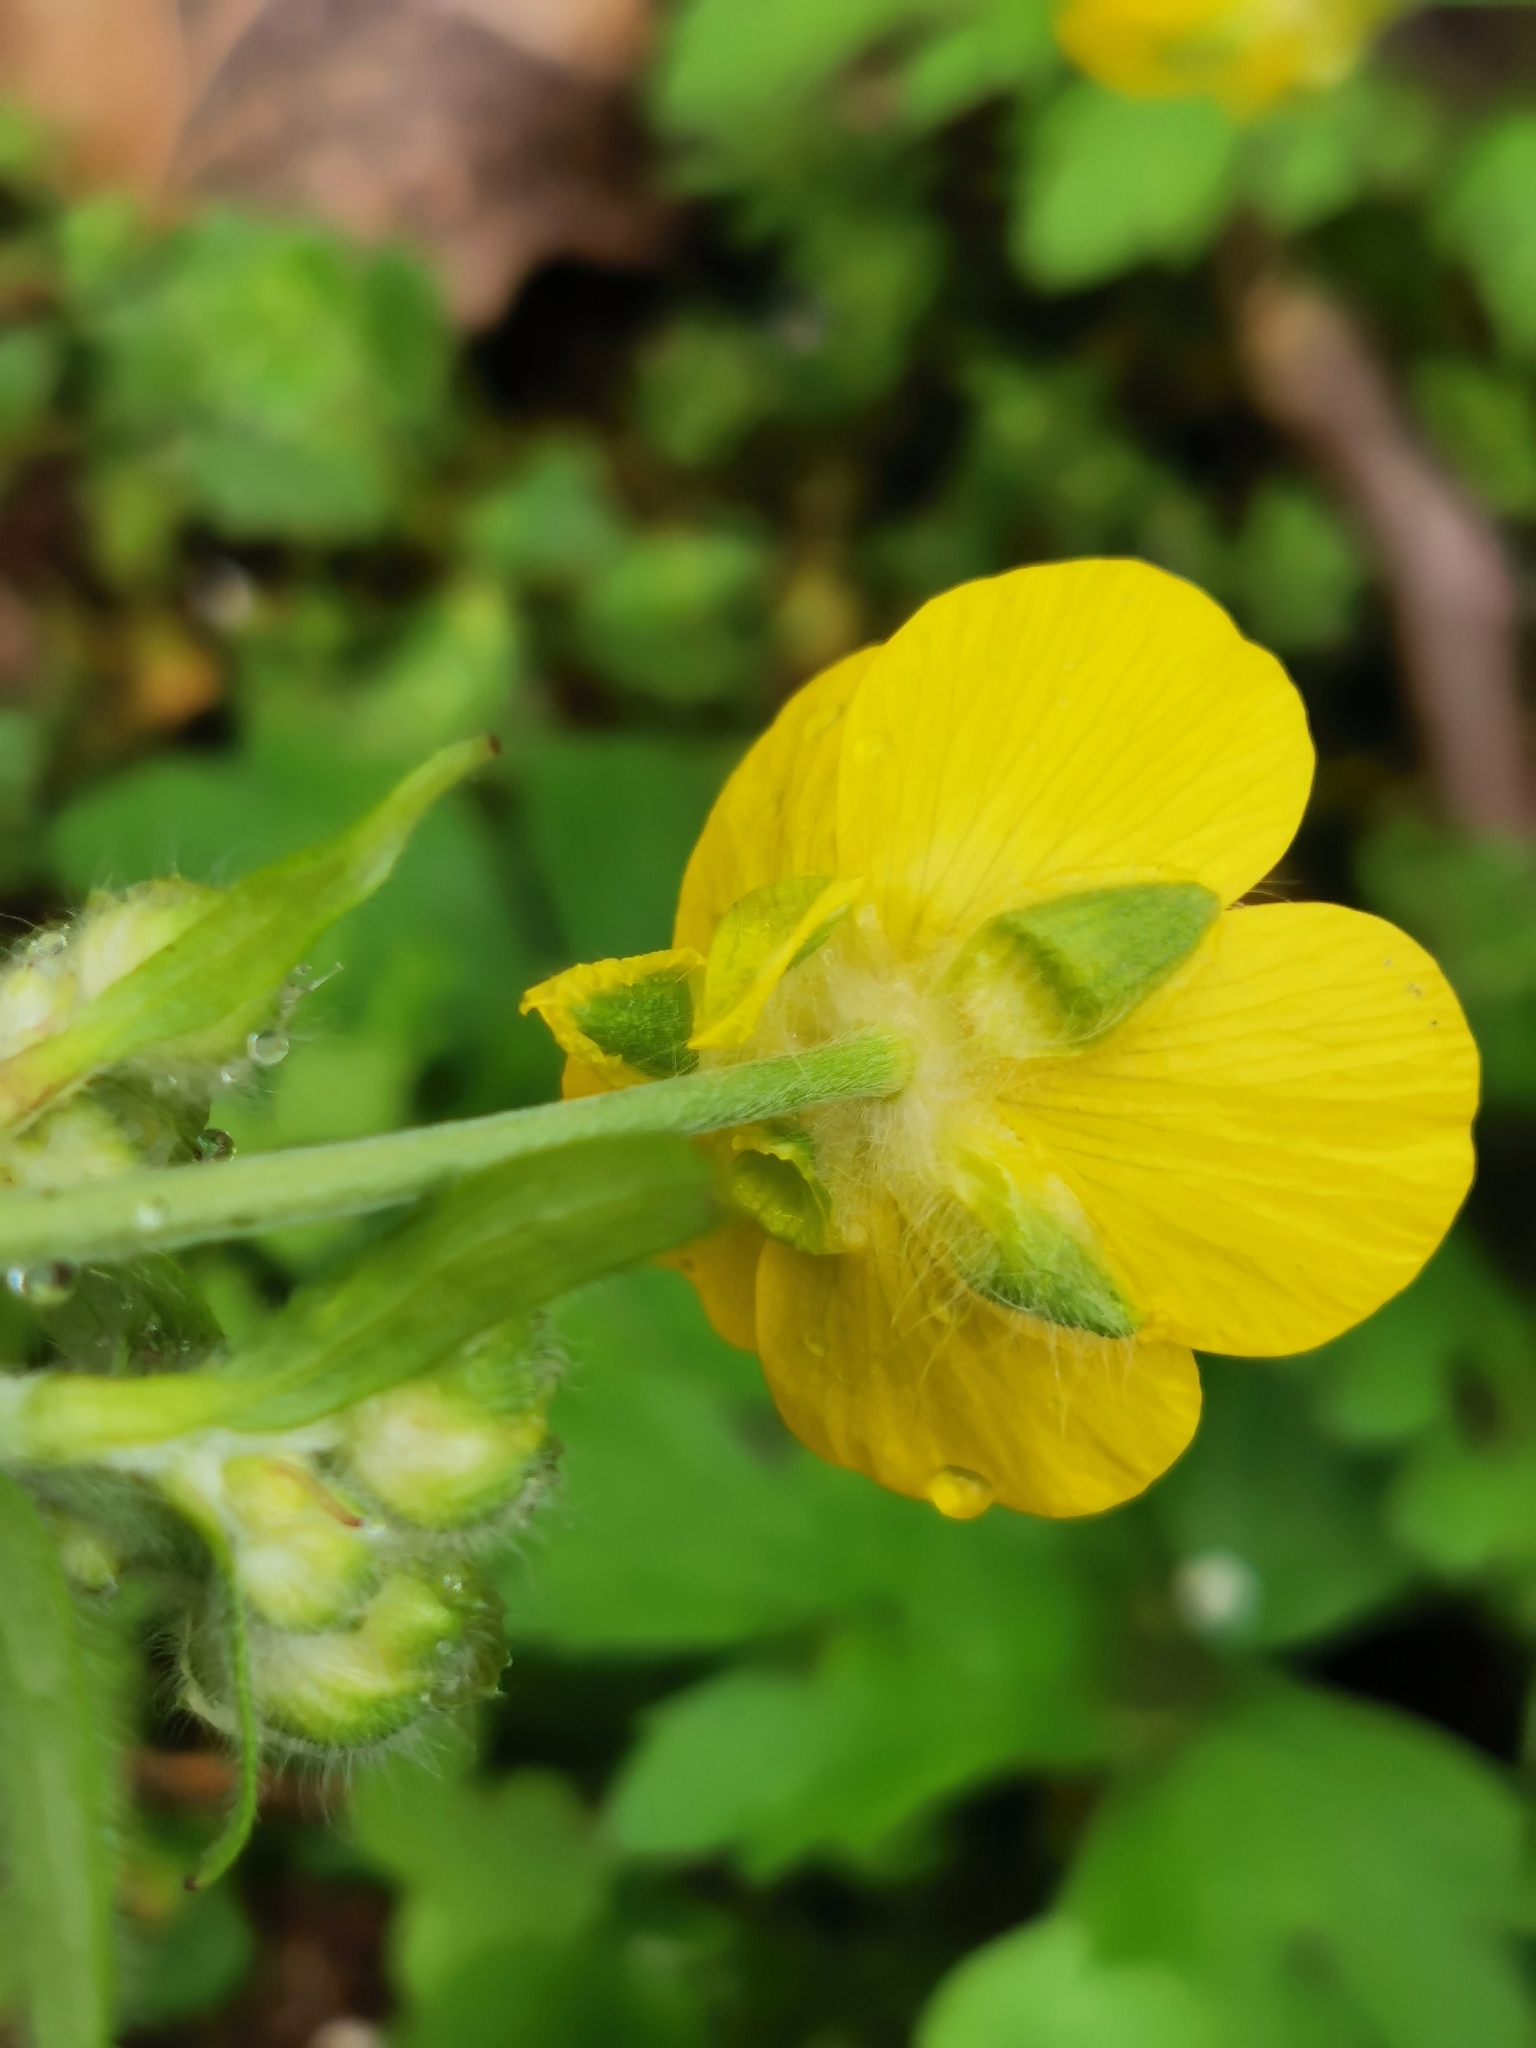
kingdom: Plantae
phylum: Tracheophyta
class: Magnoliopsida
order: Ranunculales
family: Ranunculaceae
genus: Ranunculus
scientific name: Ranunculus constantinopolitanus
